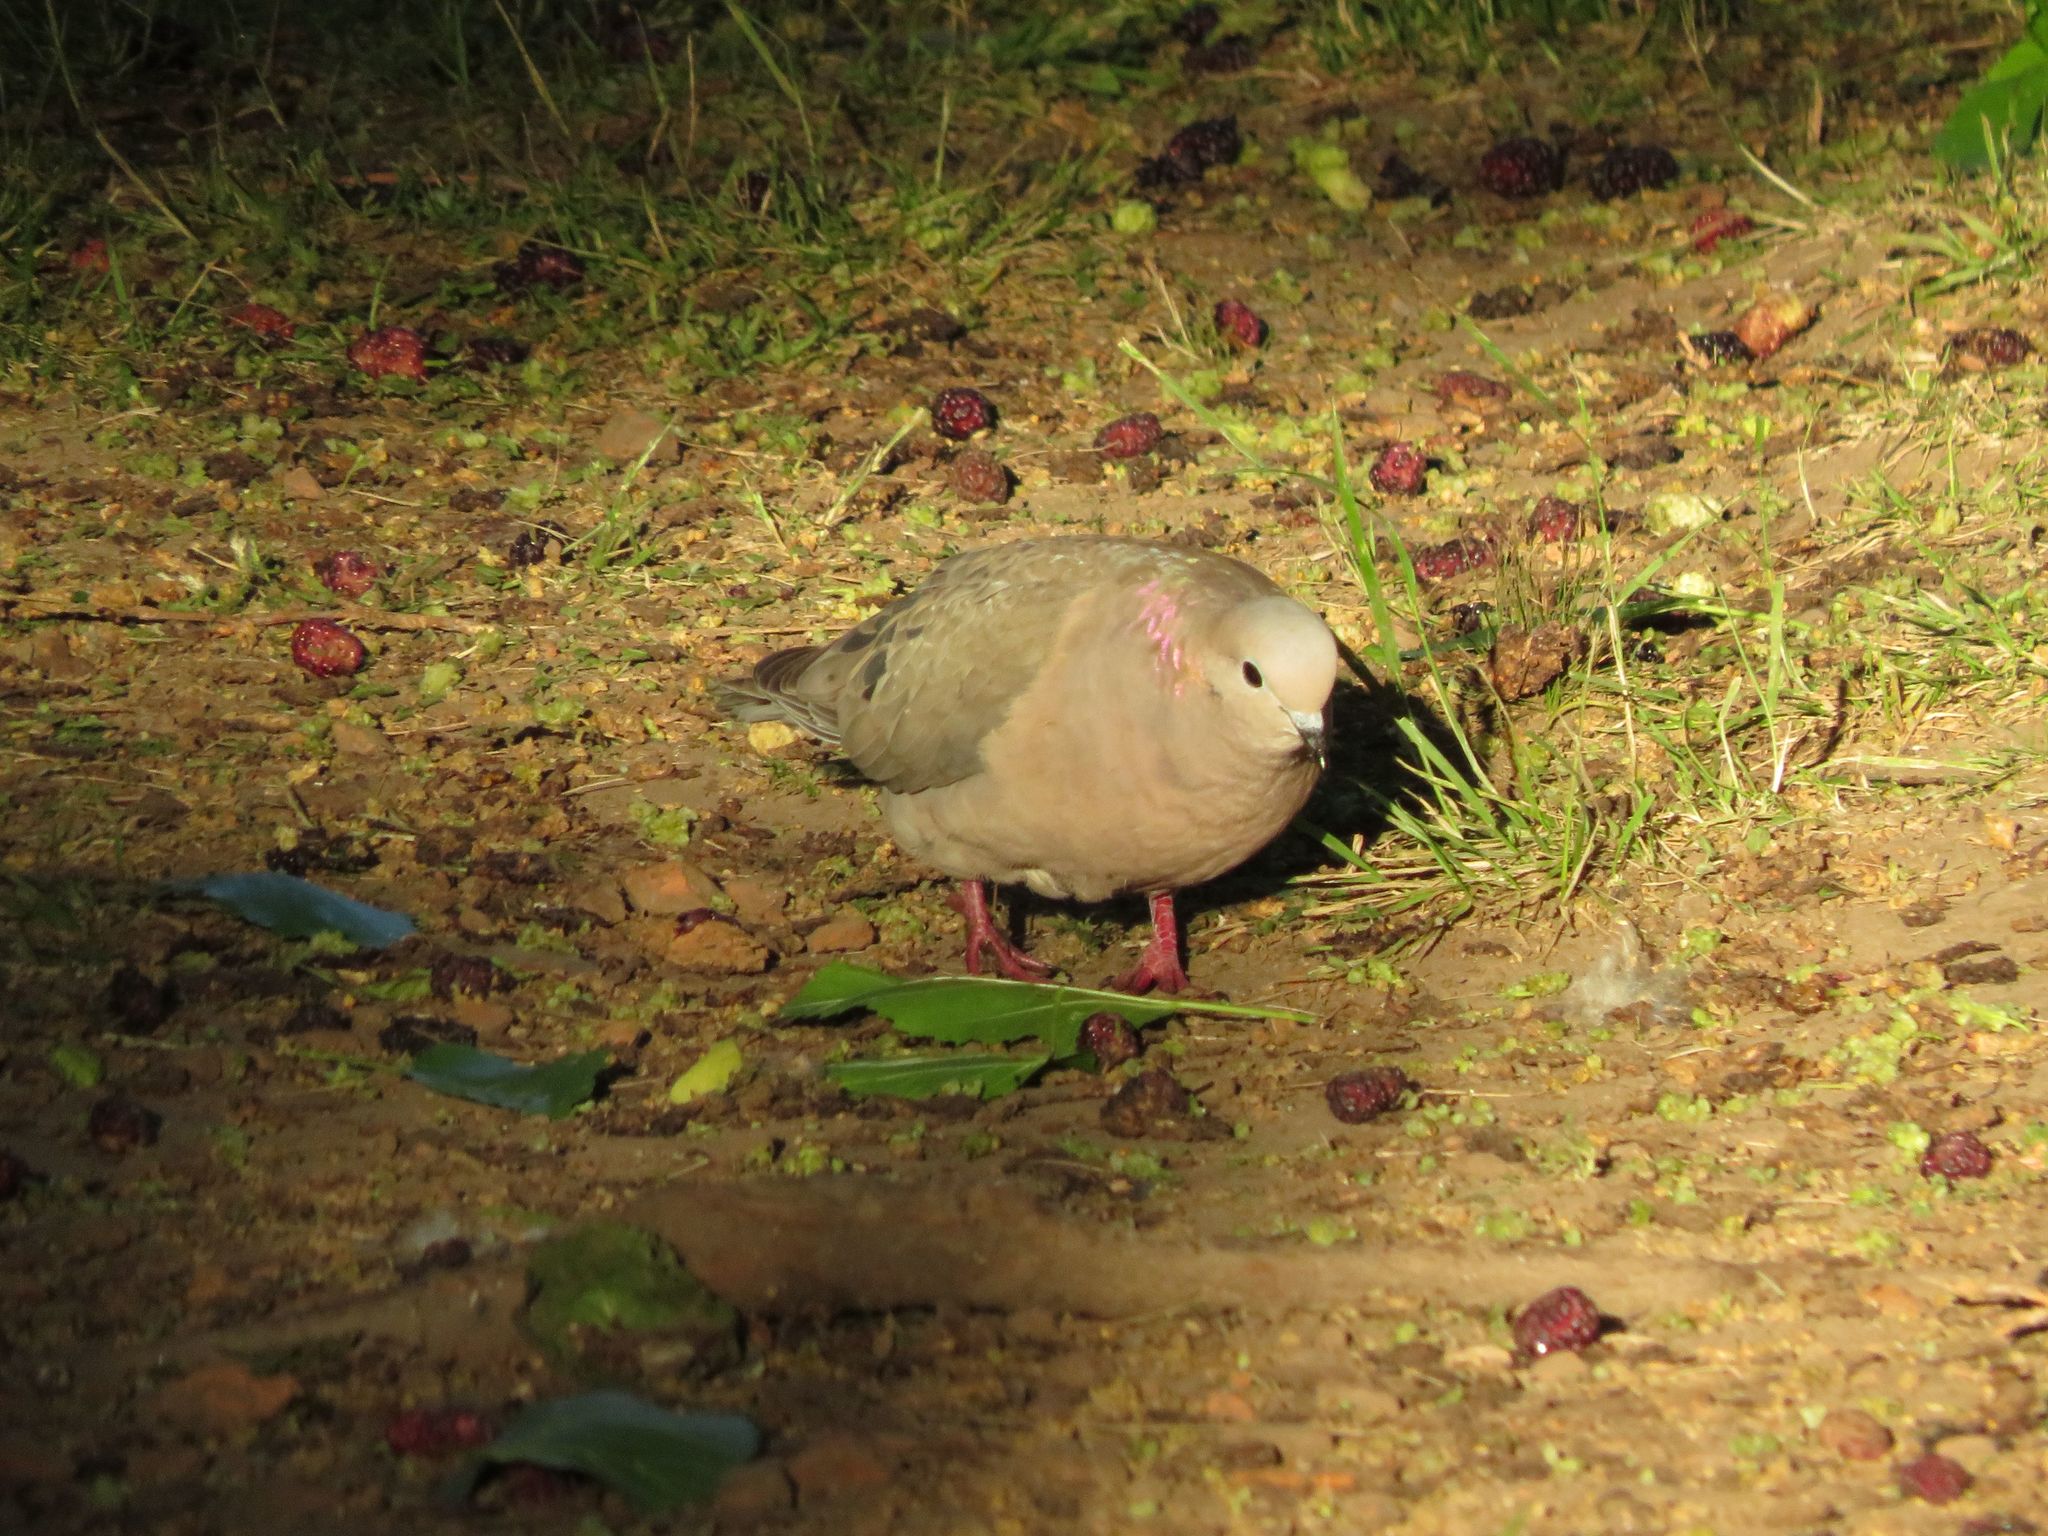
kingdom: Animalia
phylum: Chordata
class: Aves
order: Columbiformes
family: Columbidae
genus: Zenaida
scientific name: Zenaida auriculata
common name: Eared dove
